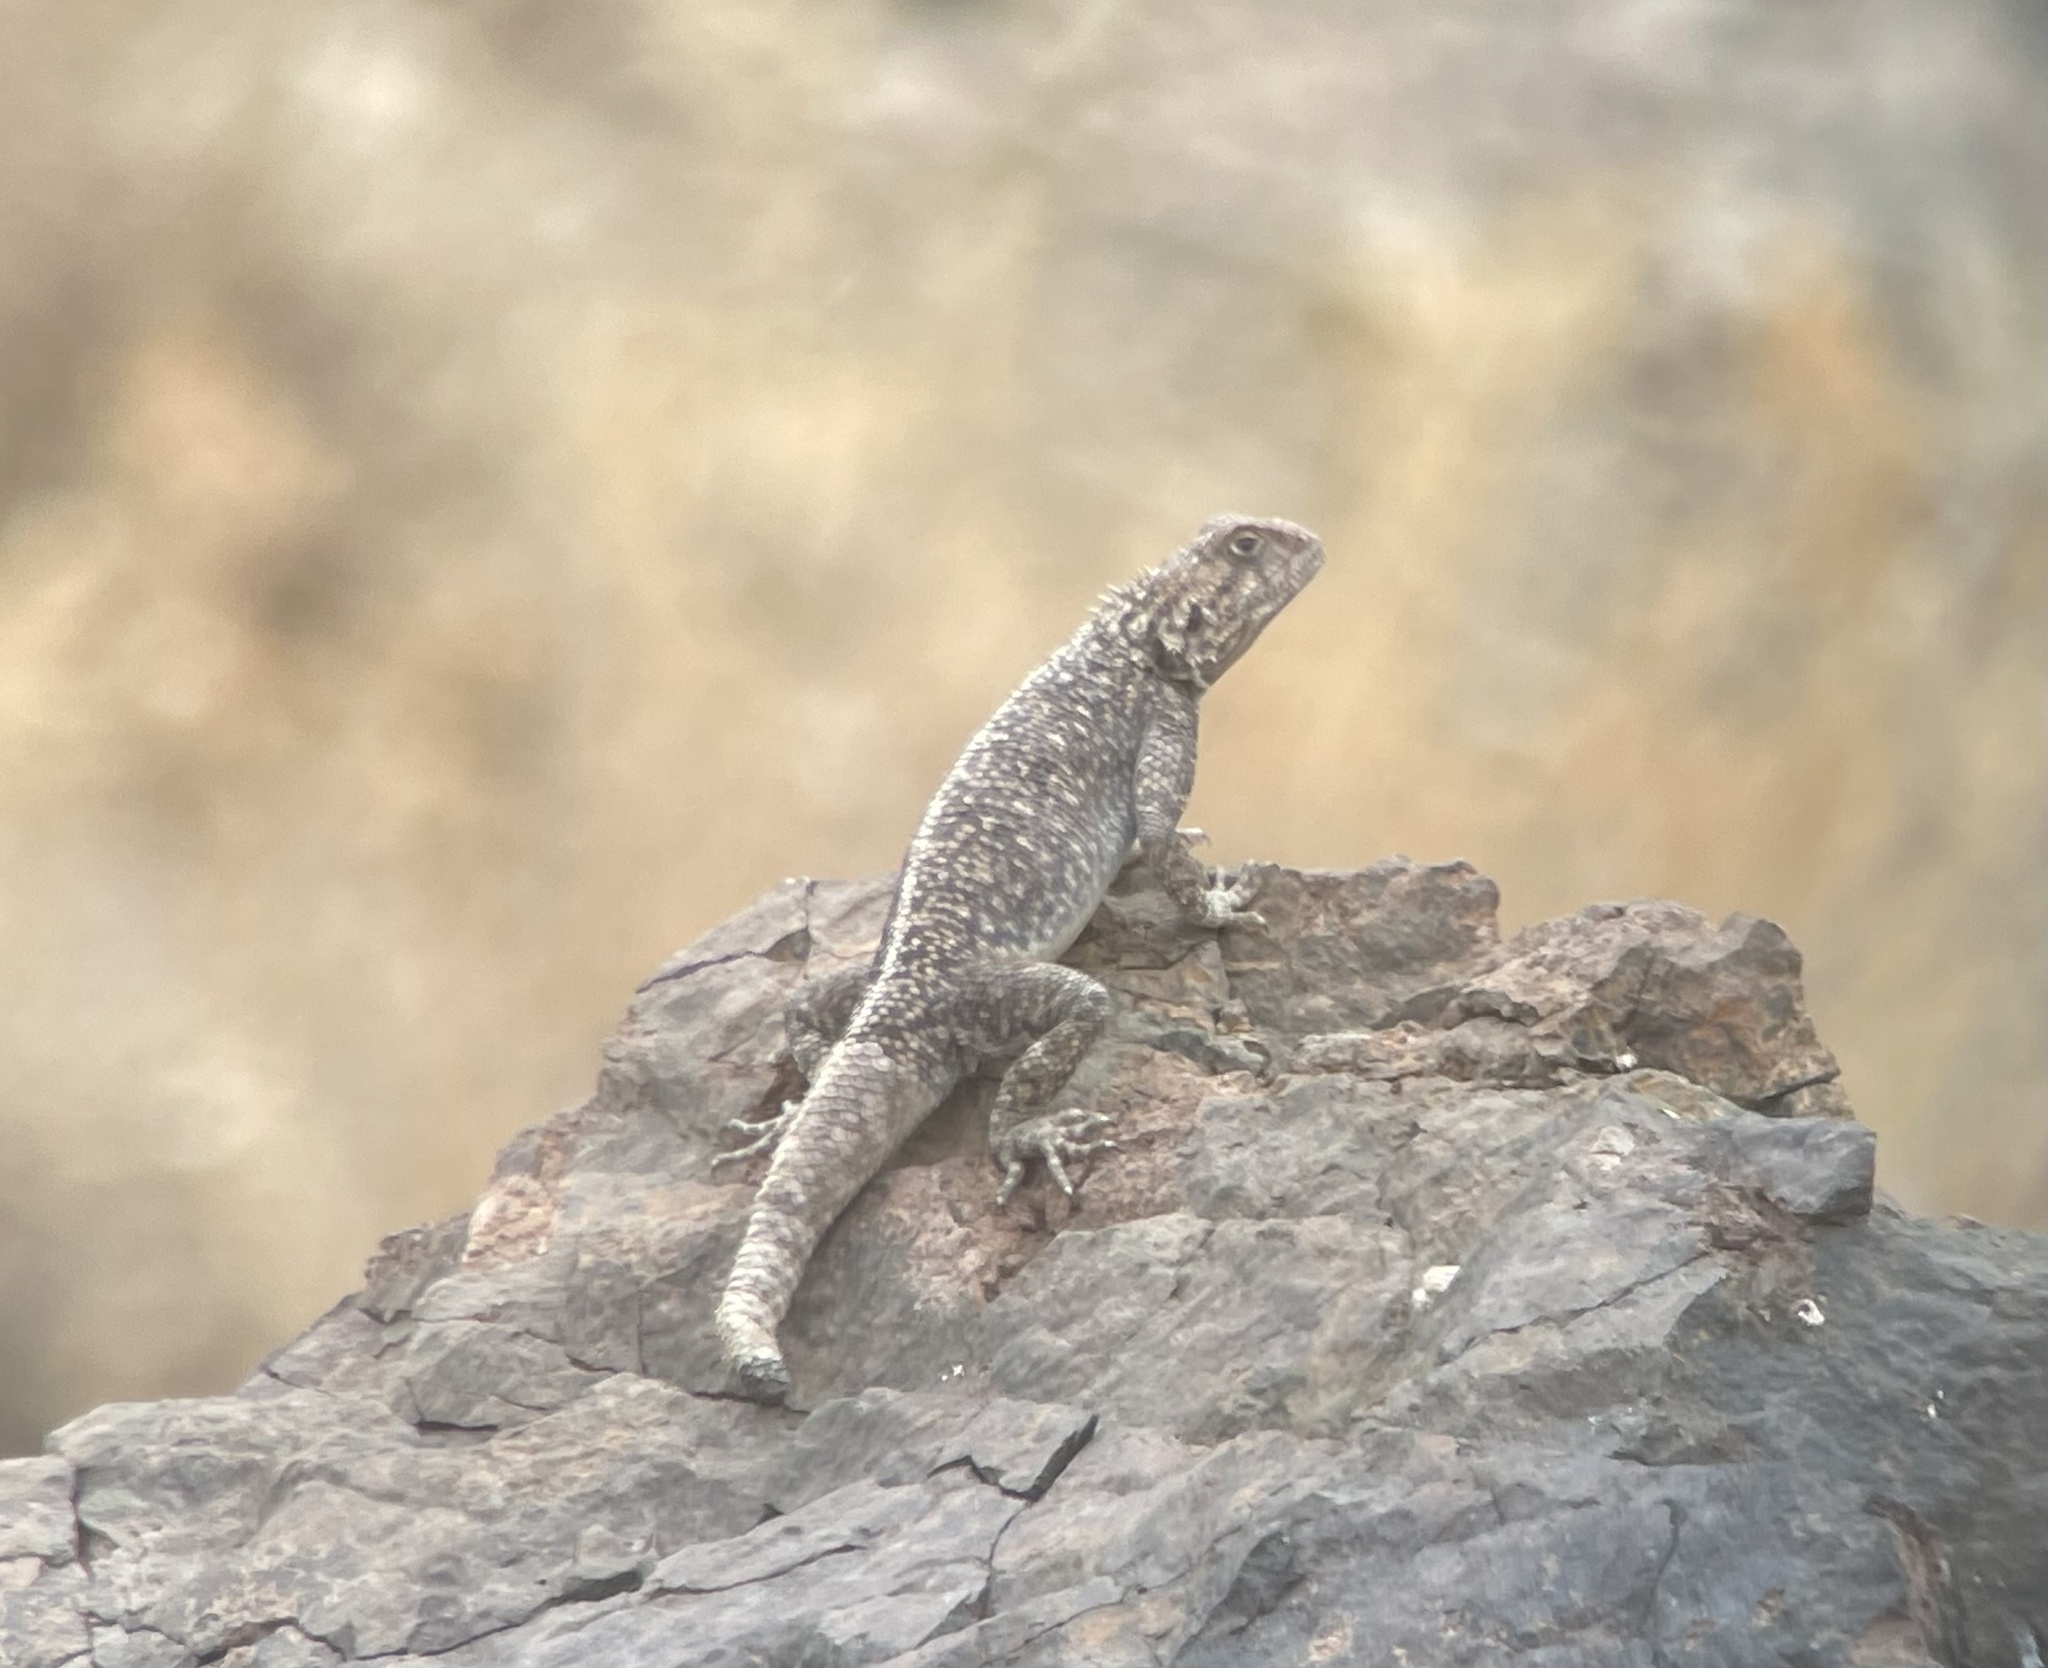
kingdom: Animalia
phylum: Chordata
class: Squamata
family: Agamidae
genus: Agama
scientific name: Agama impalearis
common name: Bibron's agama
